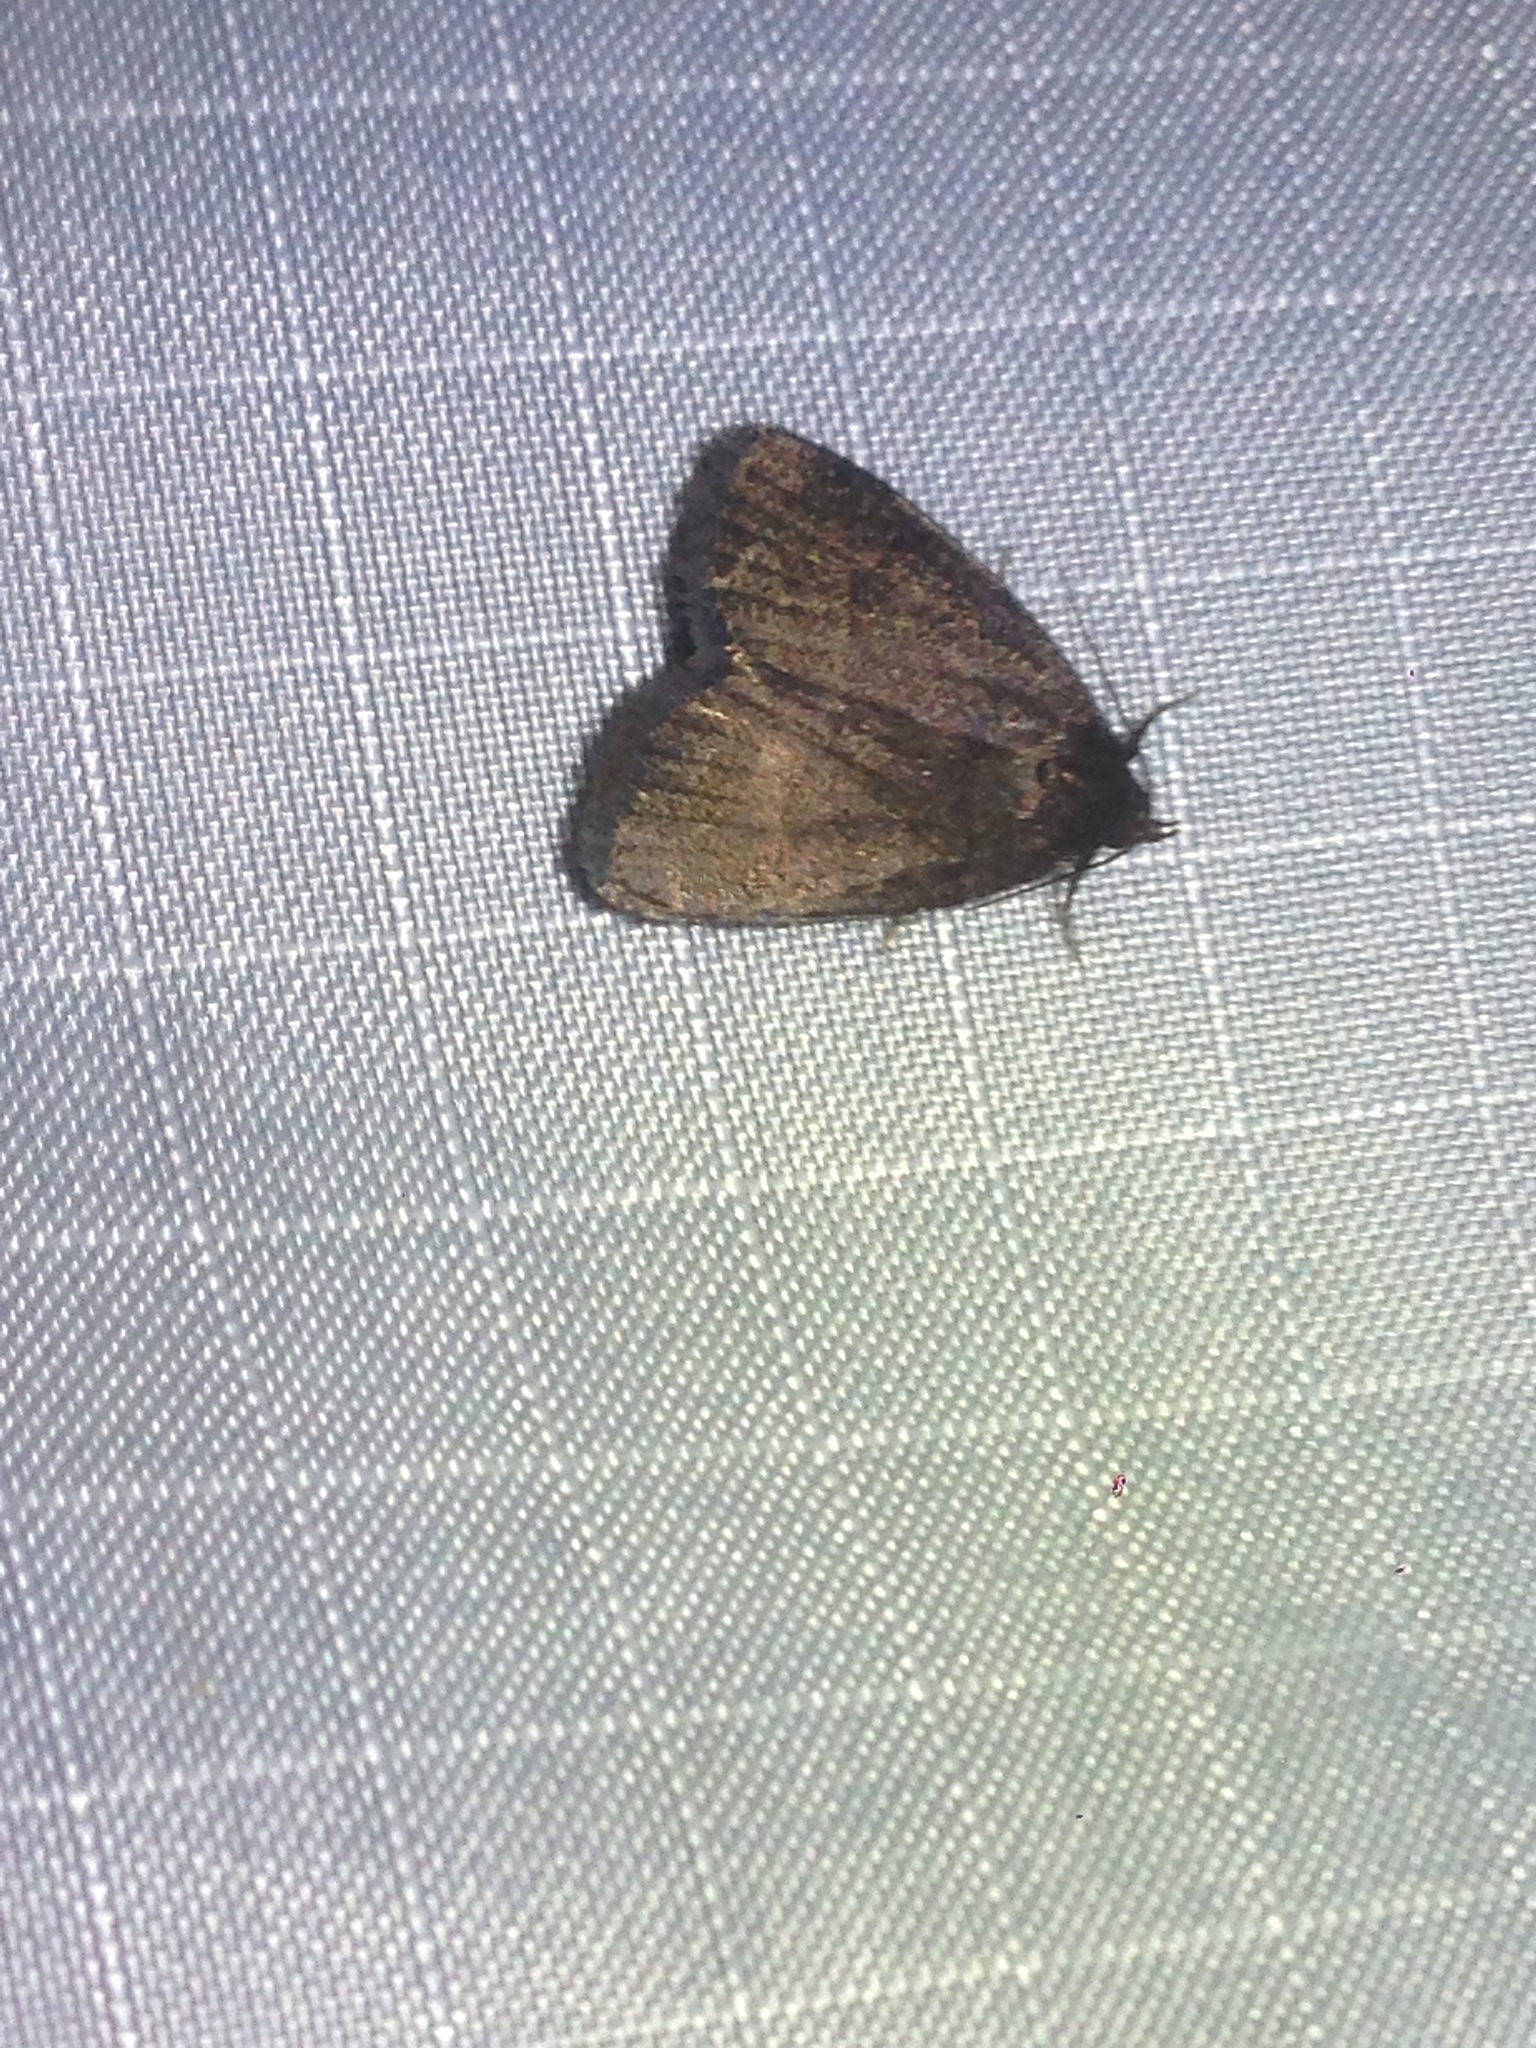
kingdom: Animalia
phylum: Arthropoda
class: Insecta
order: Lepidoptera
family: Erebidae
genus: Idia
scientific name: Idia rotundalis
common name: Rotund idia moth
